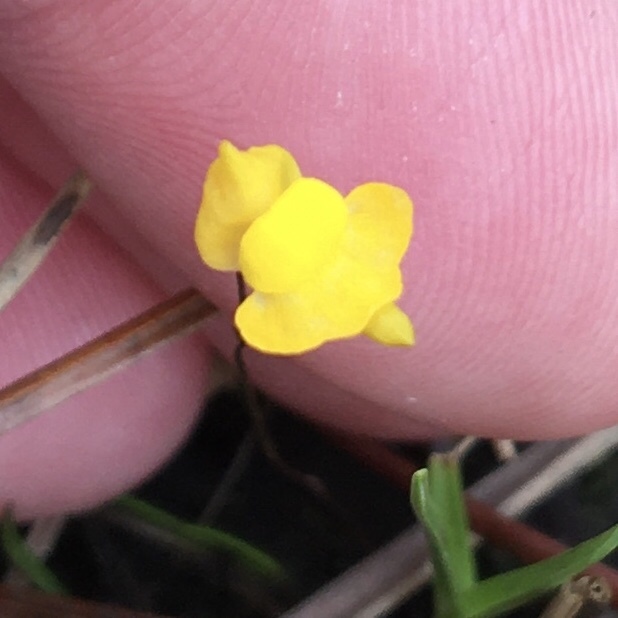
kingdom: Plantae
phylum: Tracheophyta
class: Magnoliopsida
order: Lamiales
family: Lentibulariaceae
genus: Utricularia
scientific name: Utricularia subulata
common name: Tiny bladderwort
